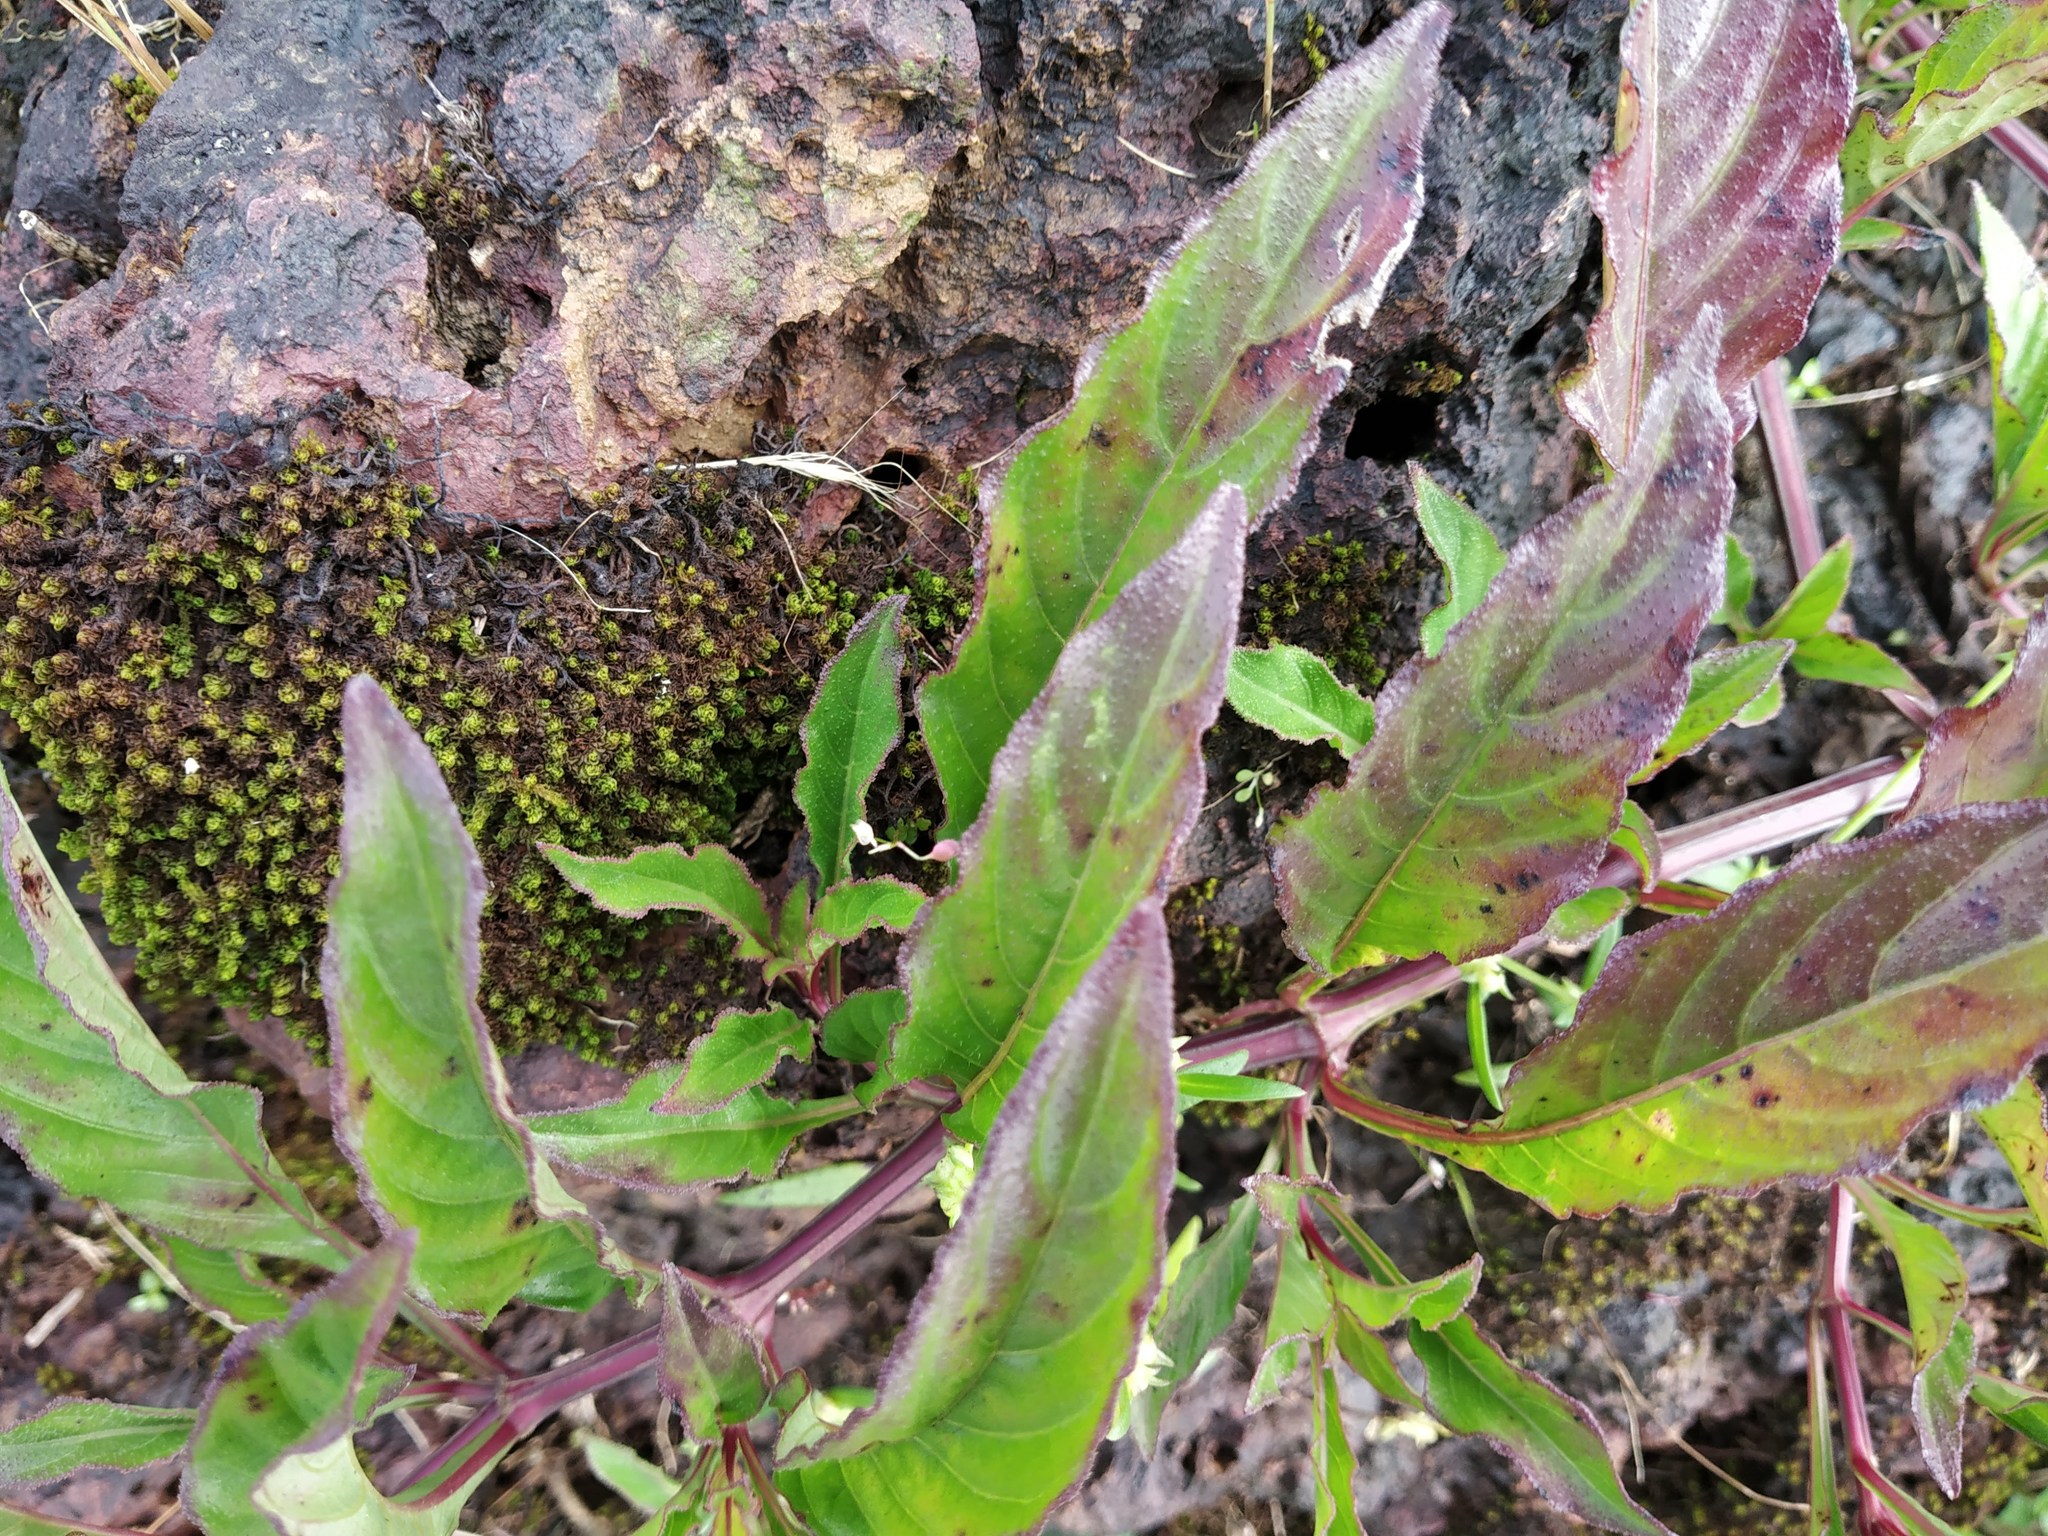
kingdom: Plantae
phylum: Tracheophyta
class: Magnoliopsida
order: Lamiales
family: Acanthaceae
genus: Lepidagathis
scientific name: Lepidagathis rigida
